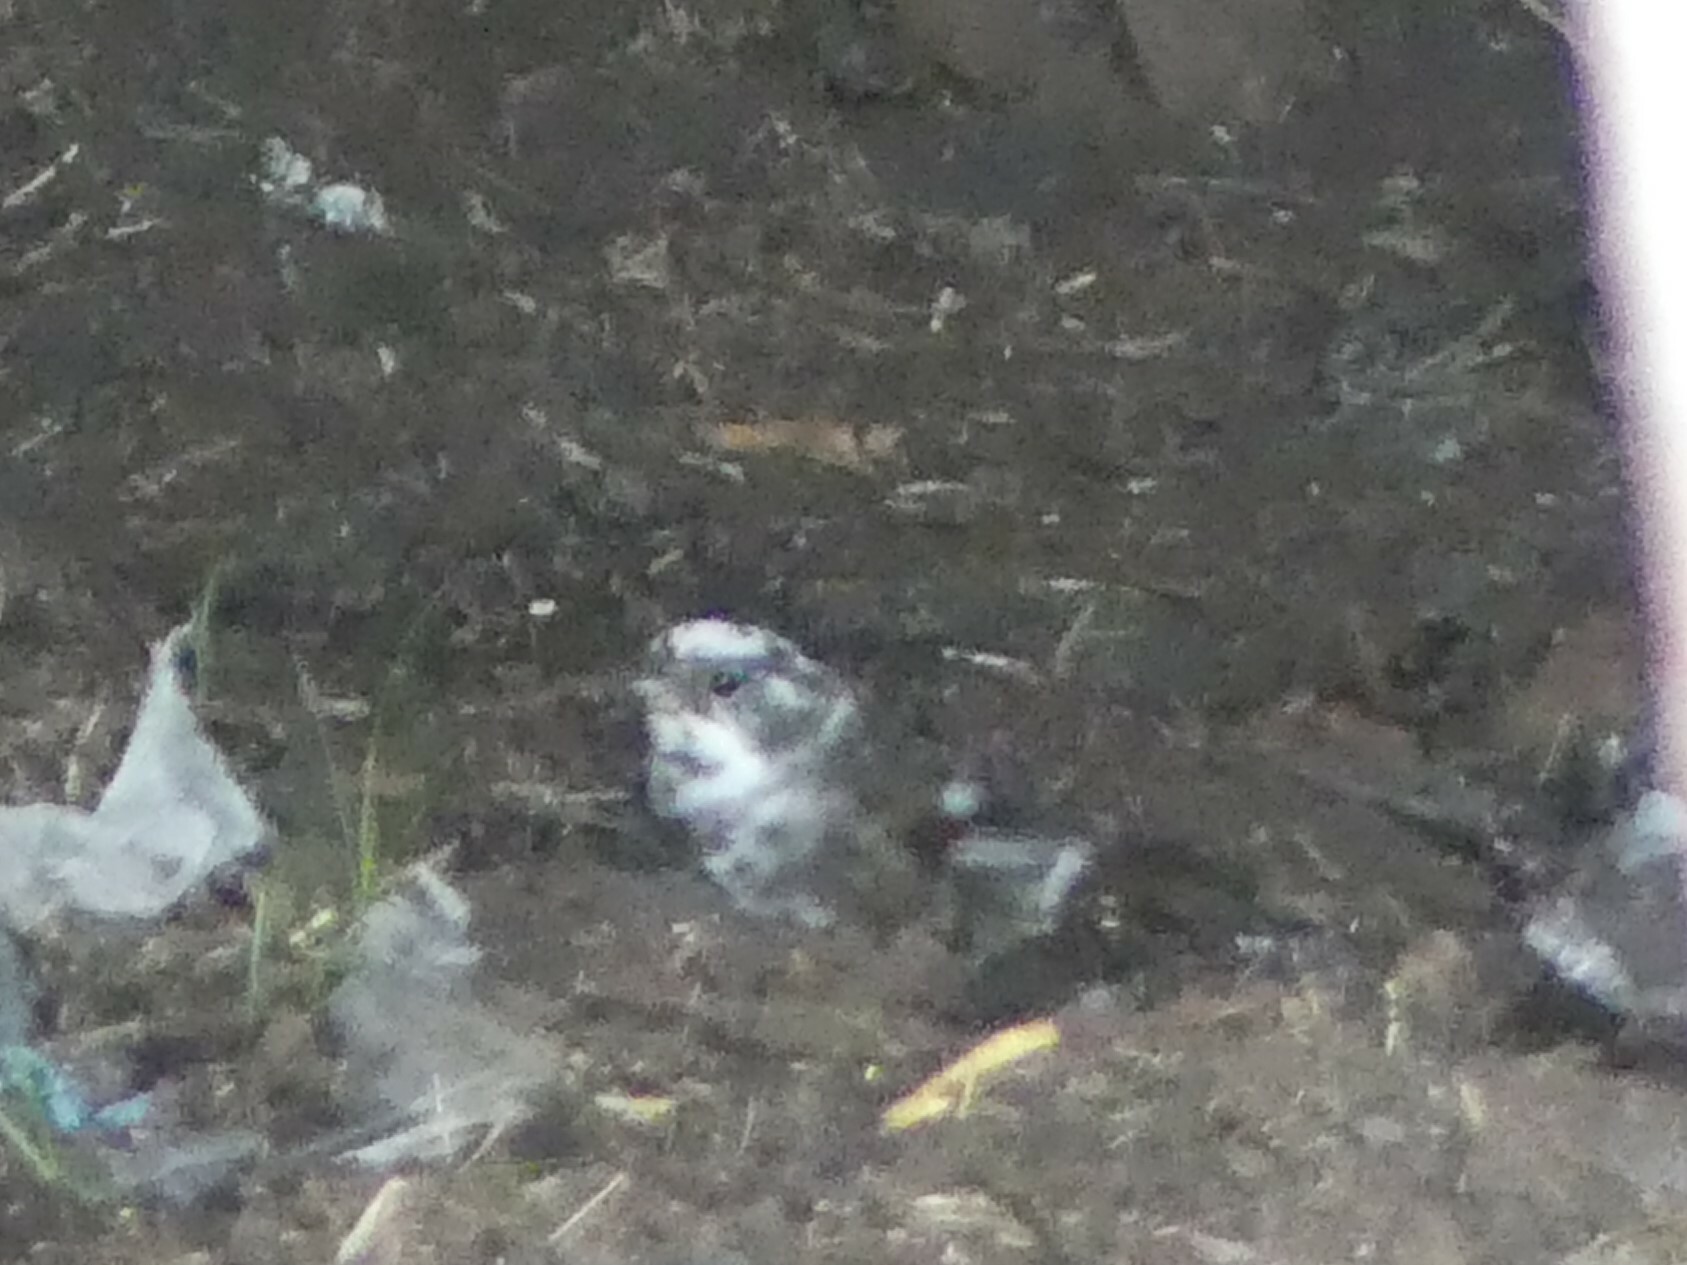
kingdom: Animalia
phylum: Chordata
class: Aves
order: Passeriformes
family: Passerellidae
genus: Passerella
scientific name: Passerella iliaca
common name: Fox sparrow
